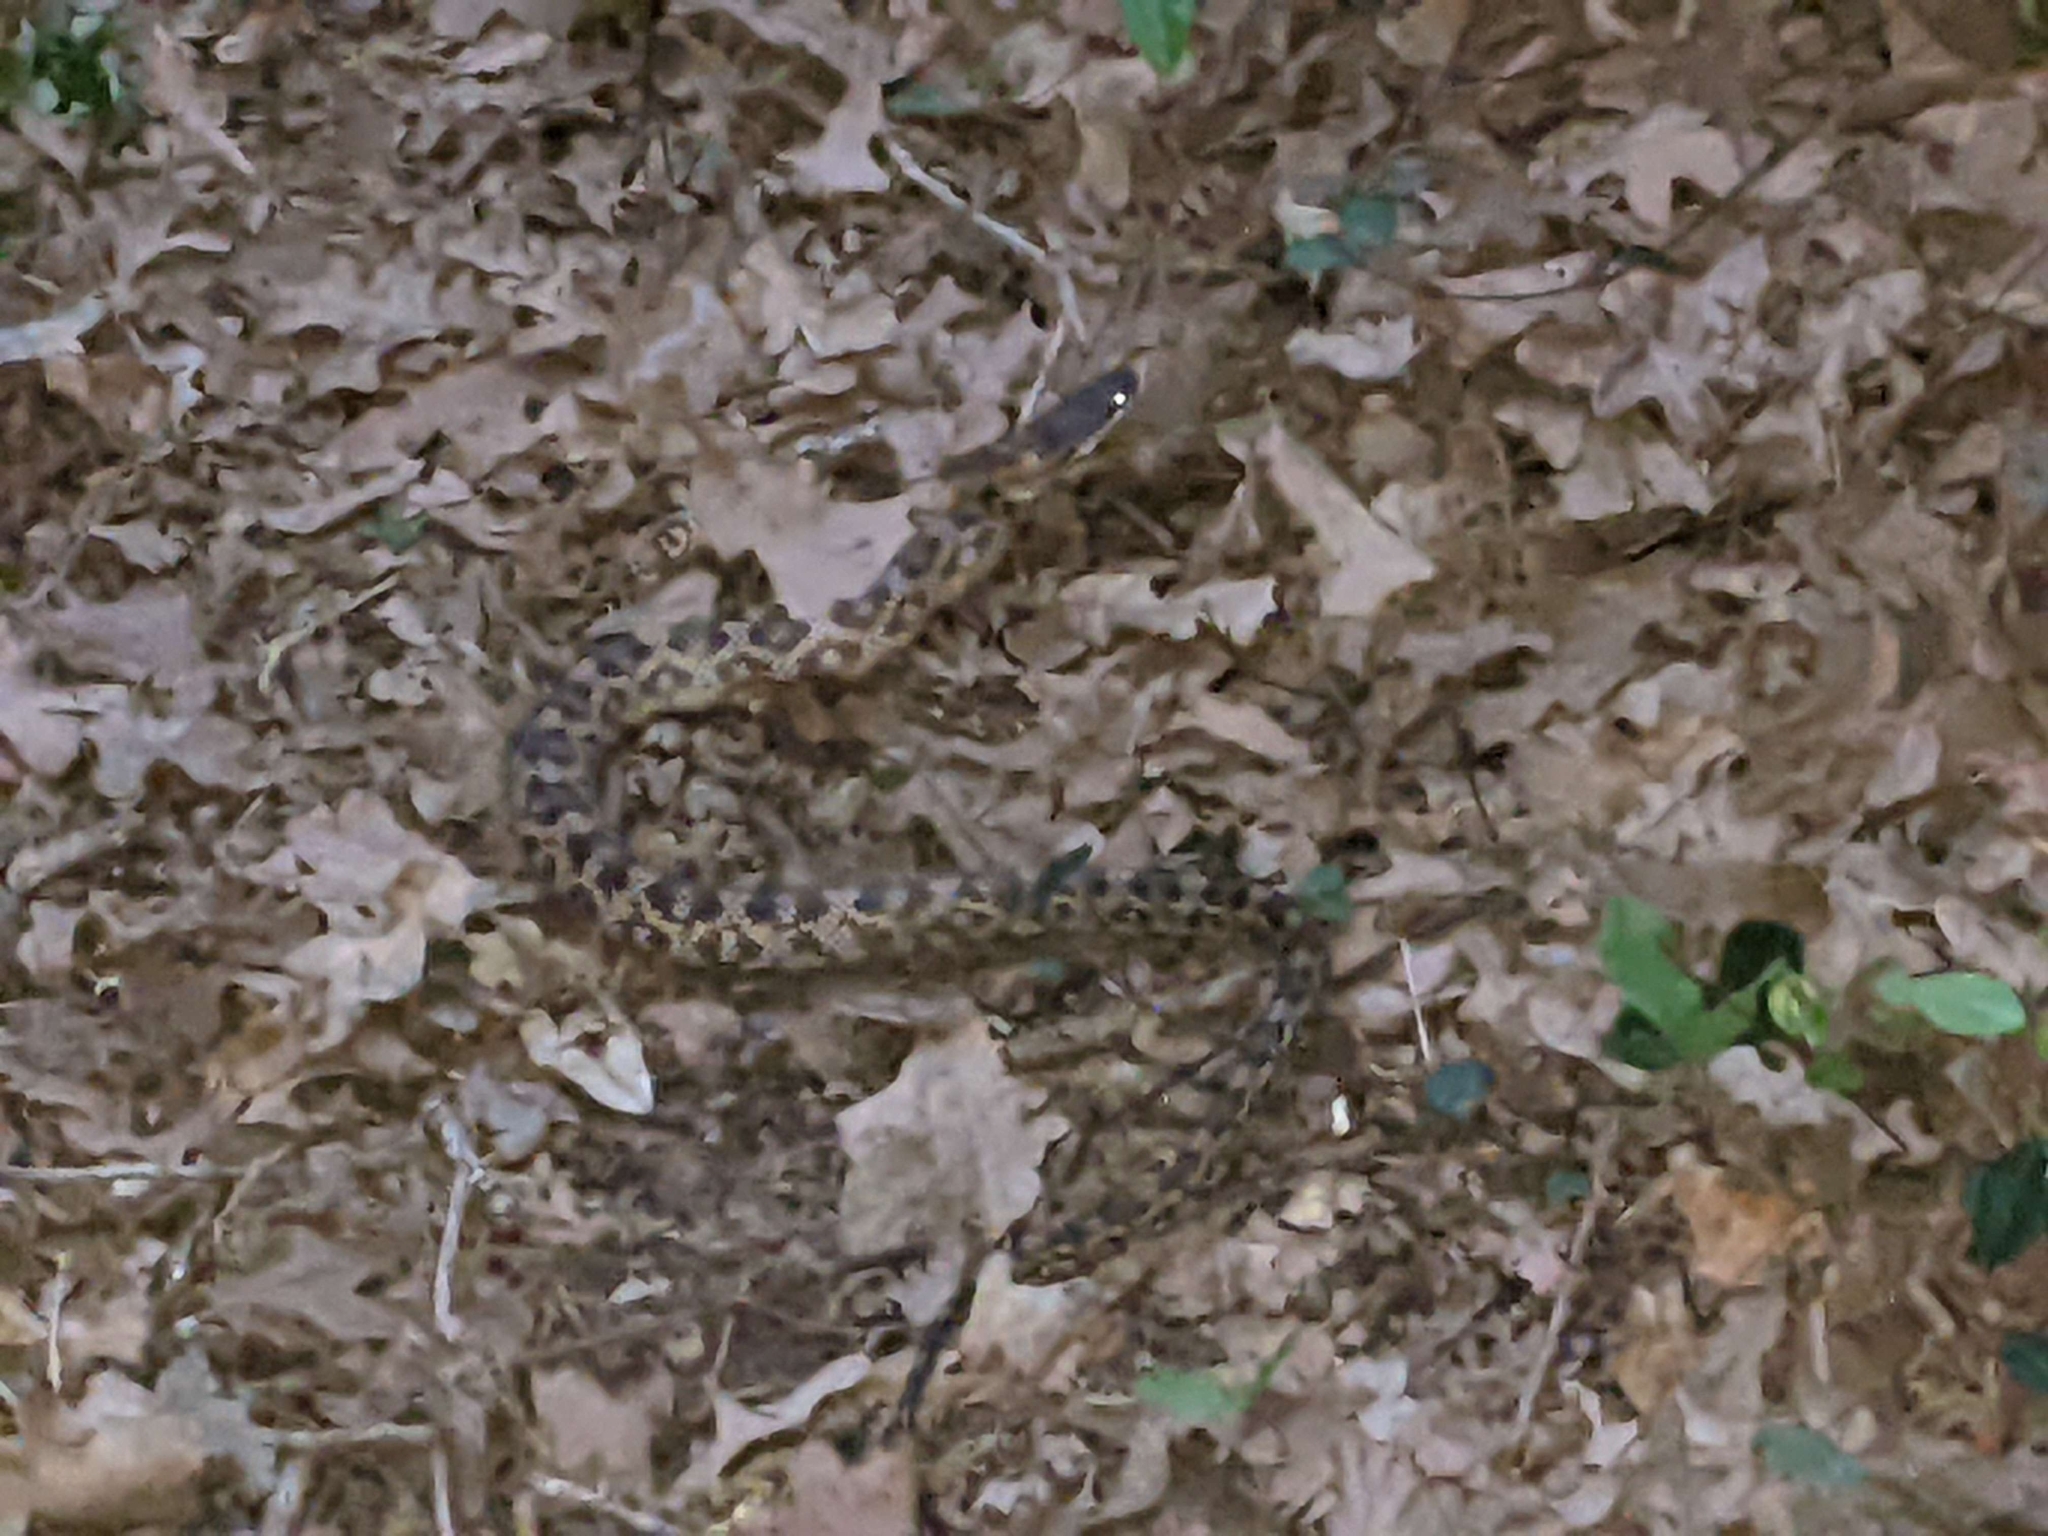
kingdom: Animalia
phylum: Chordata
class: Squamata
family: Colubridae
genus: Pantherophis
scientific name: Pantherophis obsoletus
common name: Black rat snake
